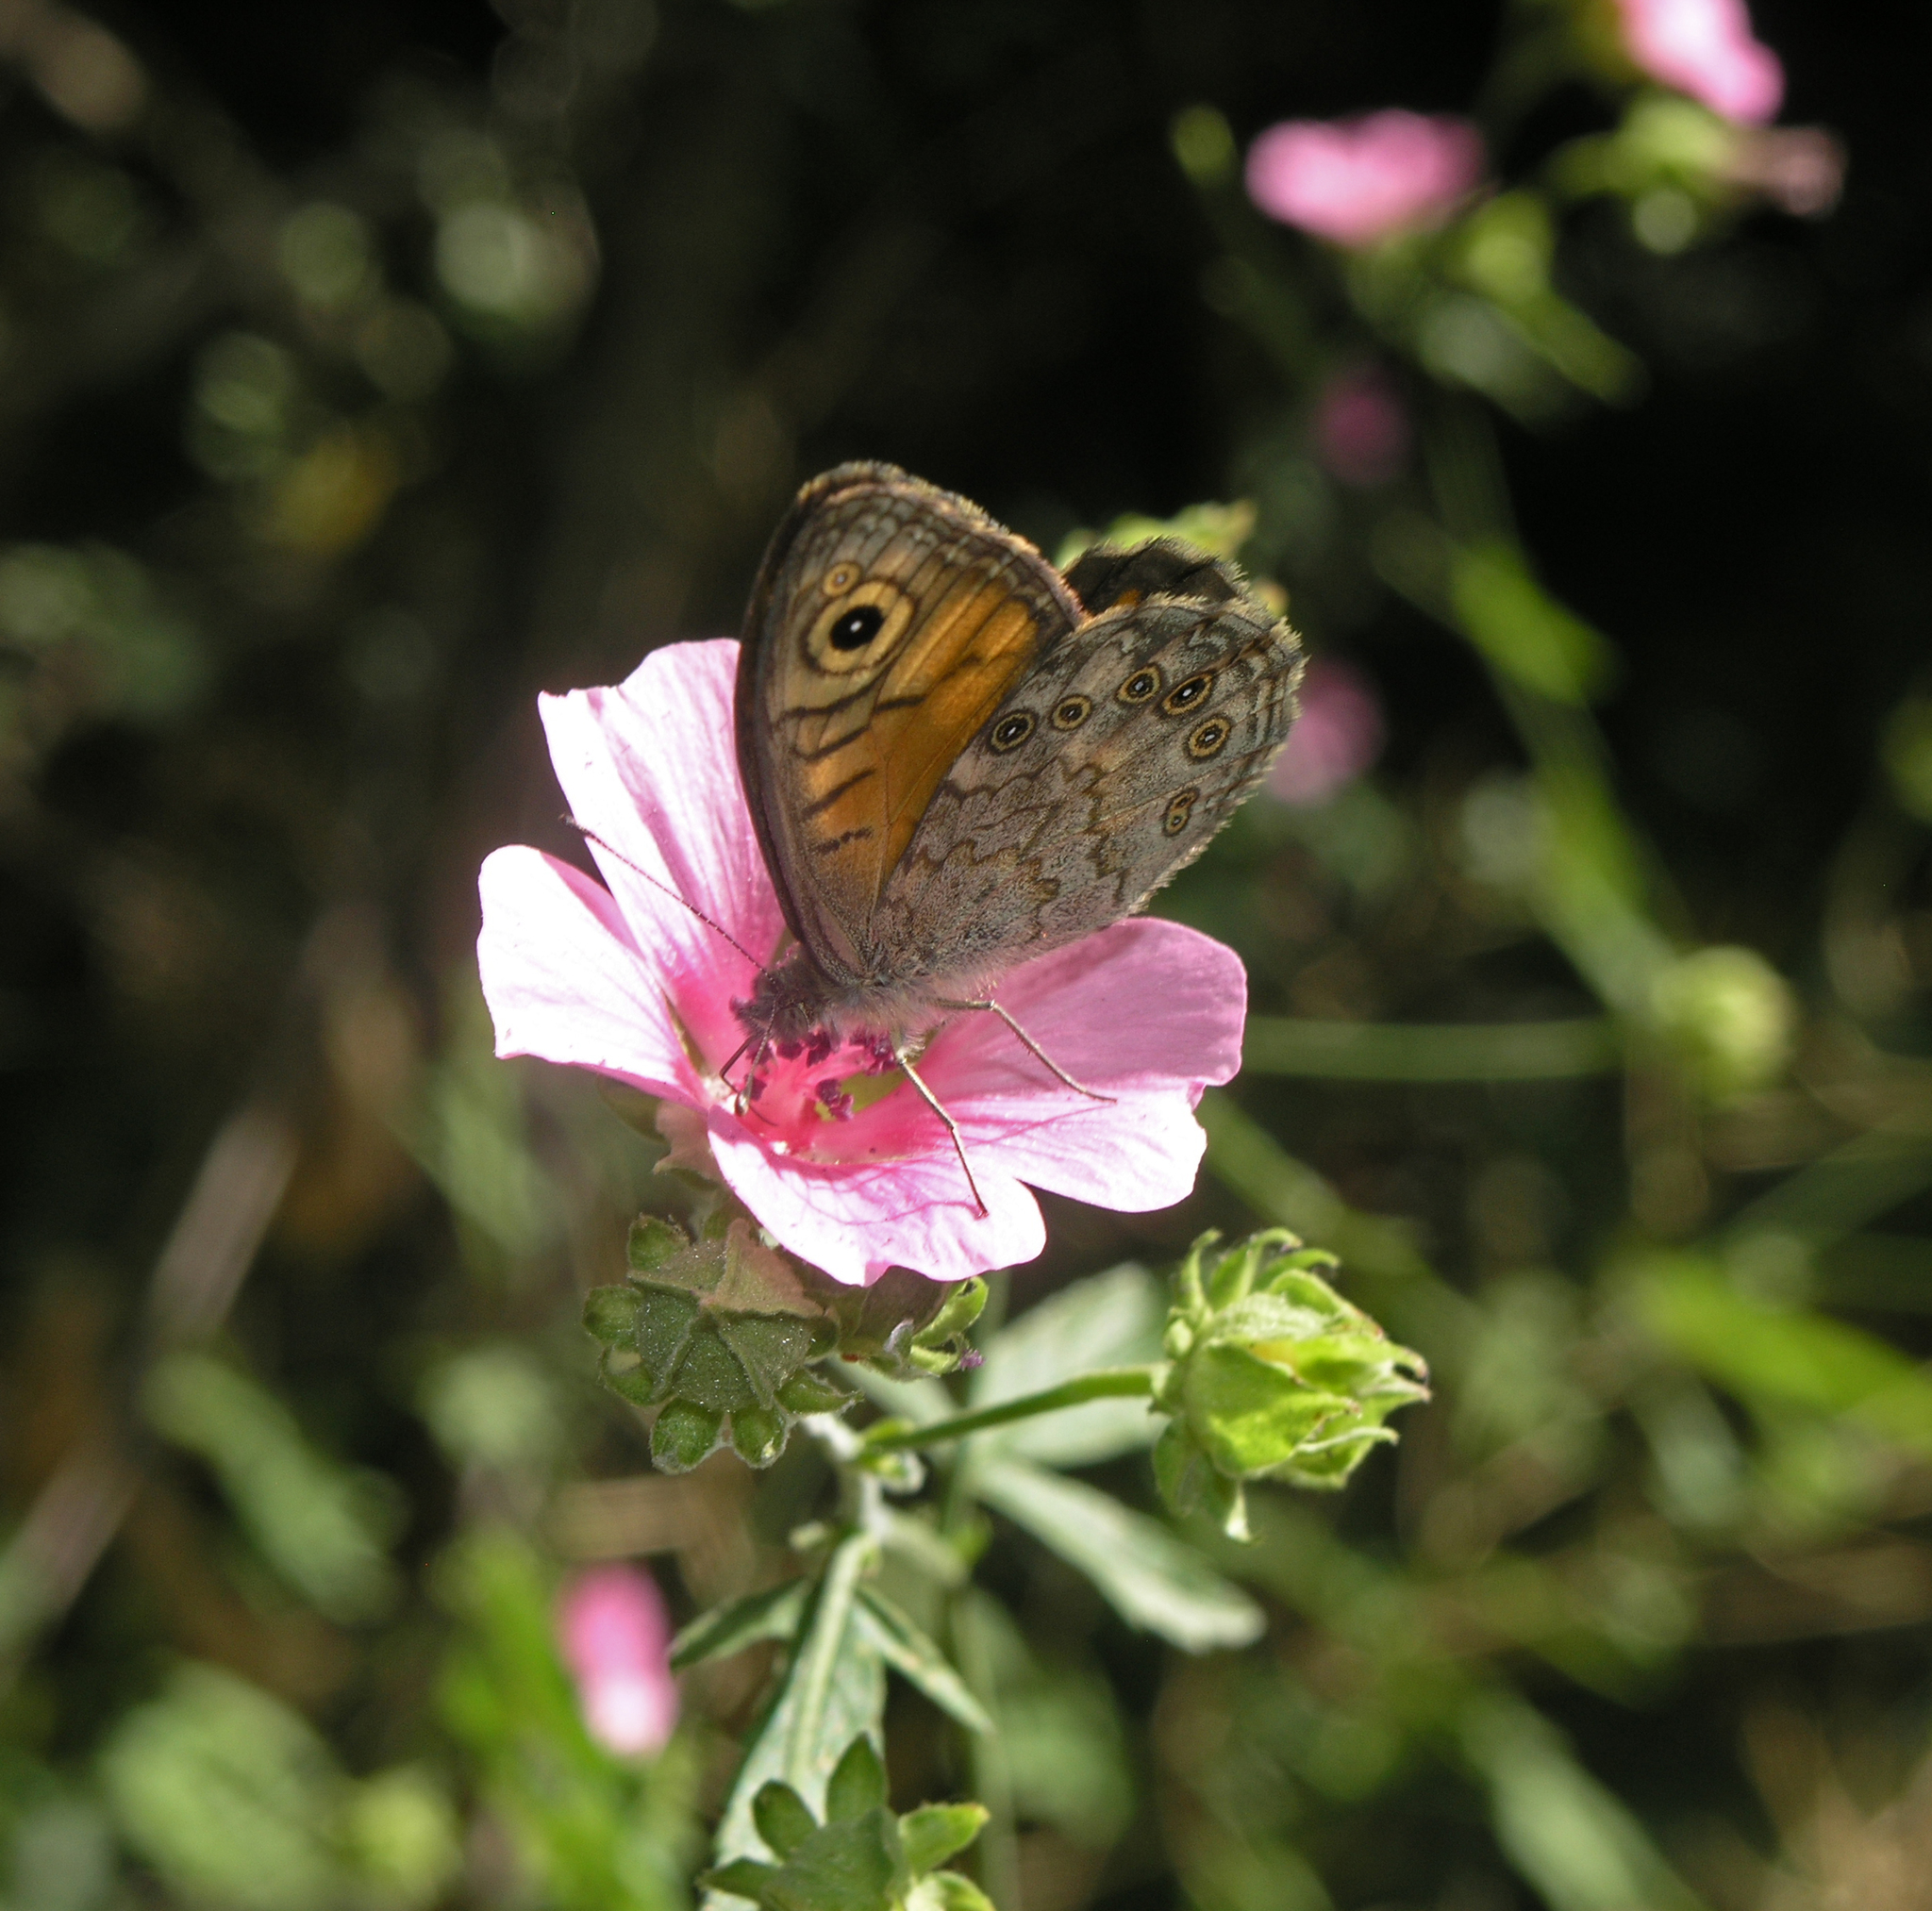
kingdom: Animalia
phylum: Arthropoda
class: Insecta
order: Lepidoptera
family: Nymphalidae
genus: Pararge
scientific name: Pararge Lasiommata megera
